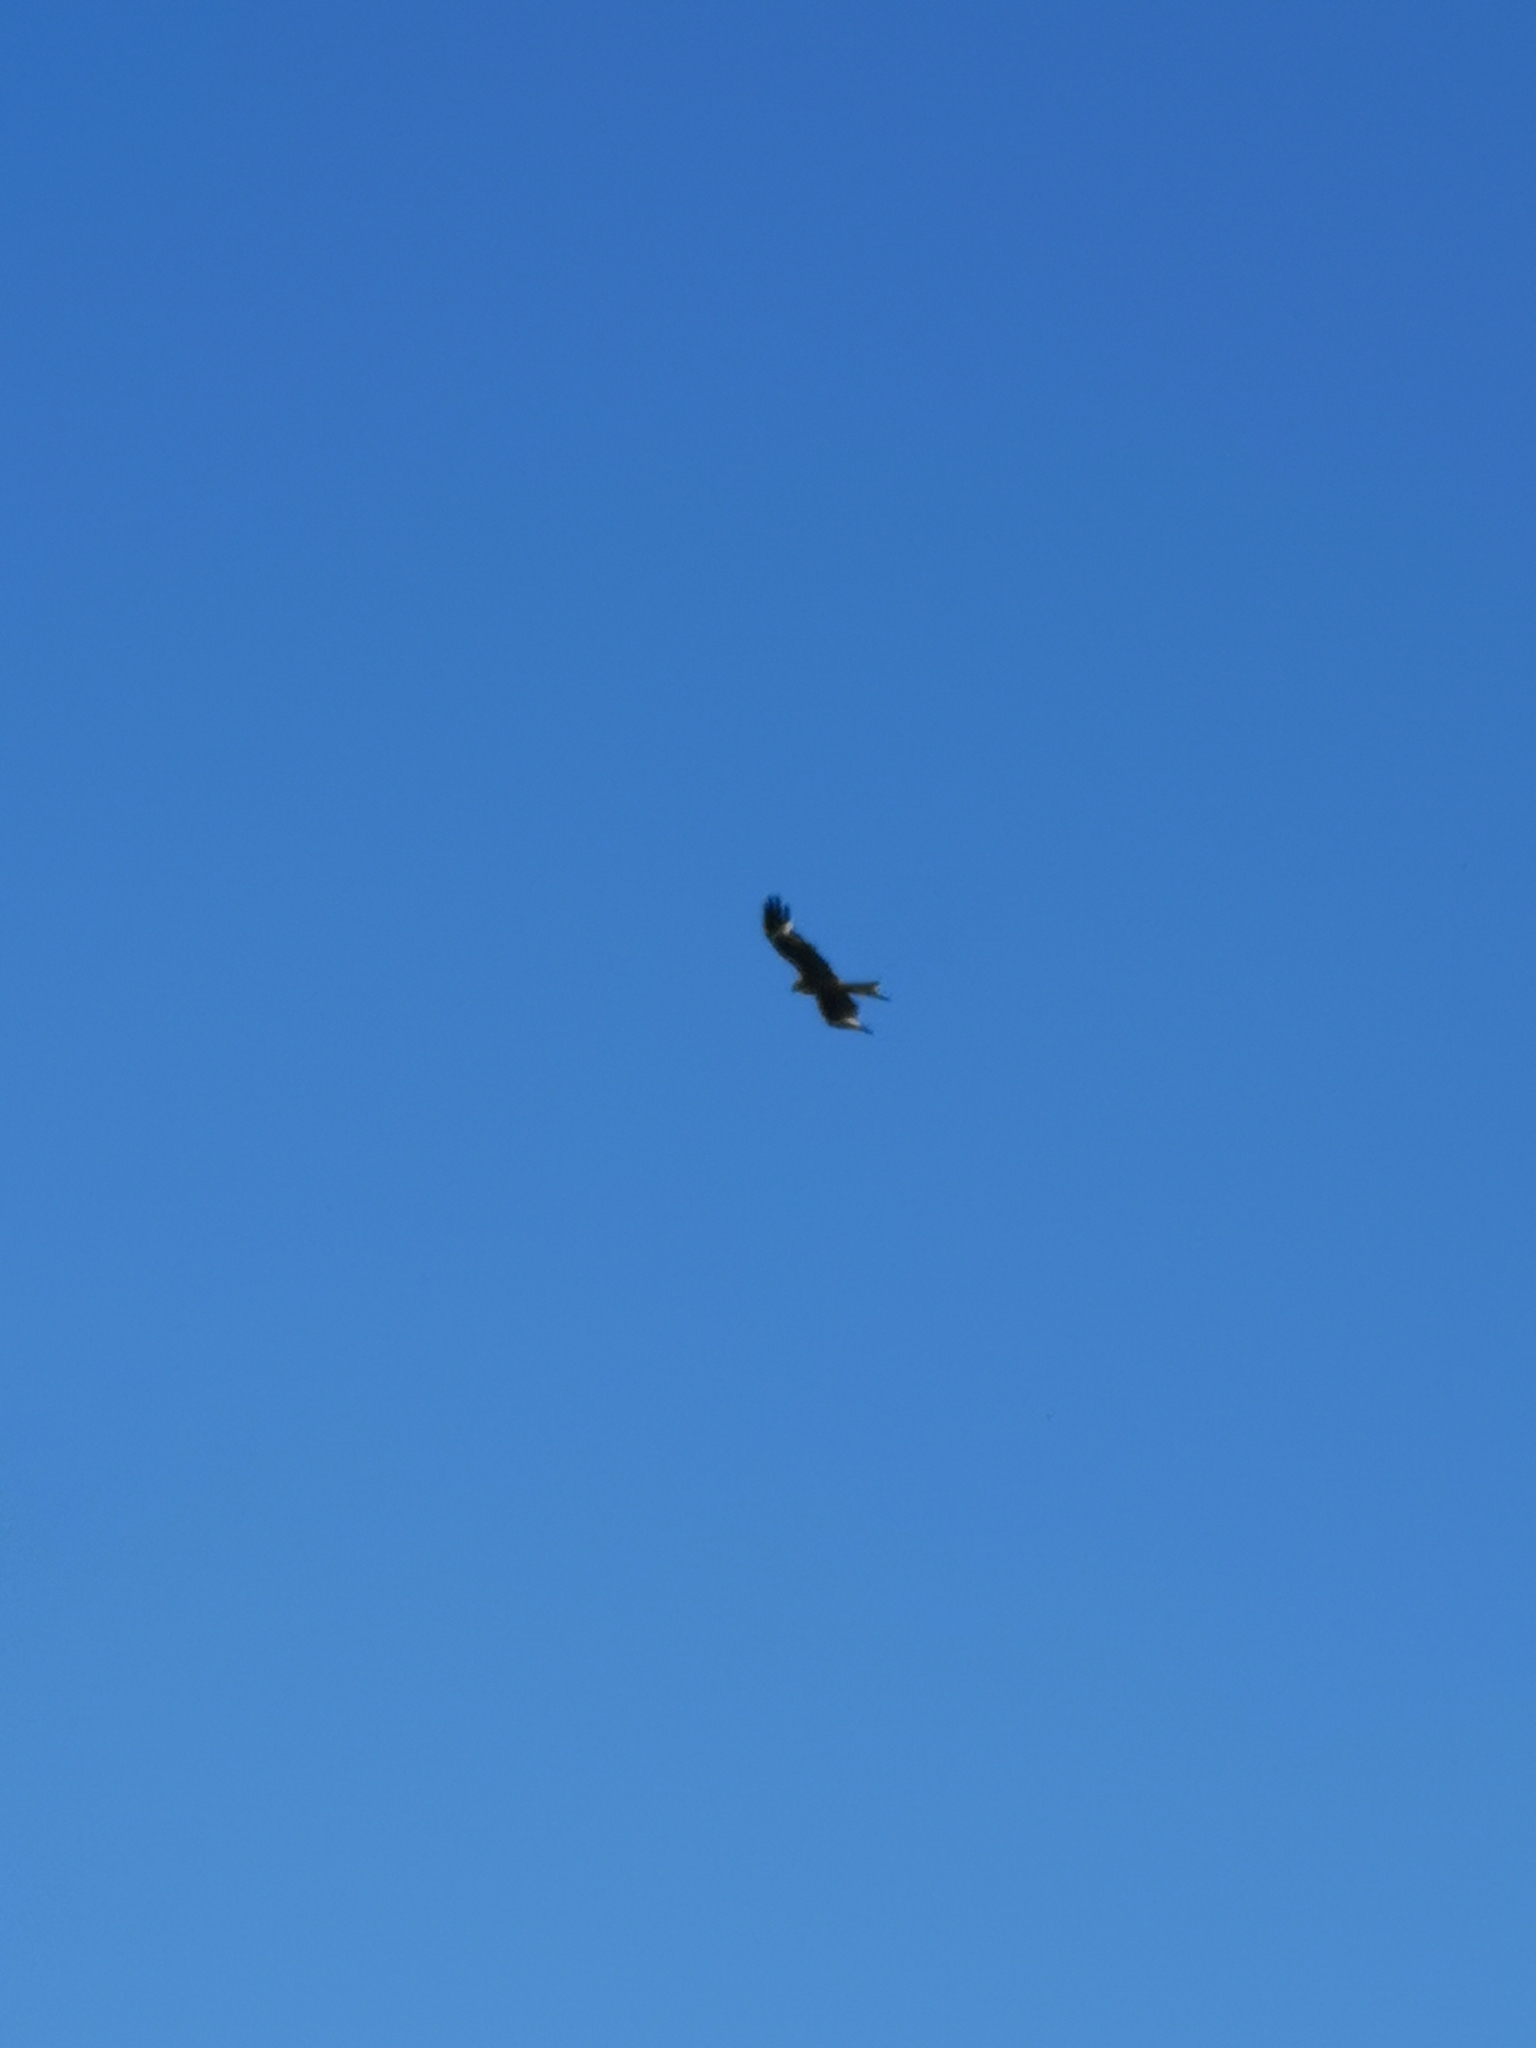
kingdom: Animalia
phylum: Chordata
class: Aves
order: Accipitriformes
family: Accipitridae
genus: Milvus
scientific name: Milvus milvus
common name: Red kite
